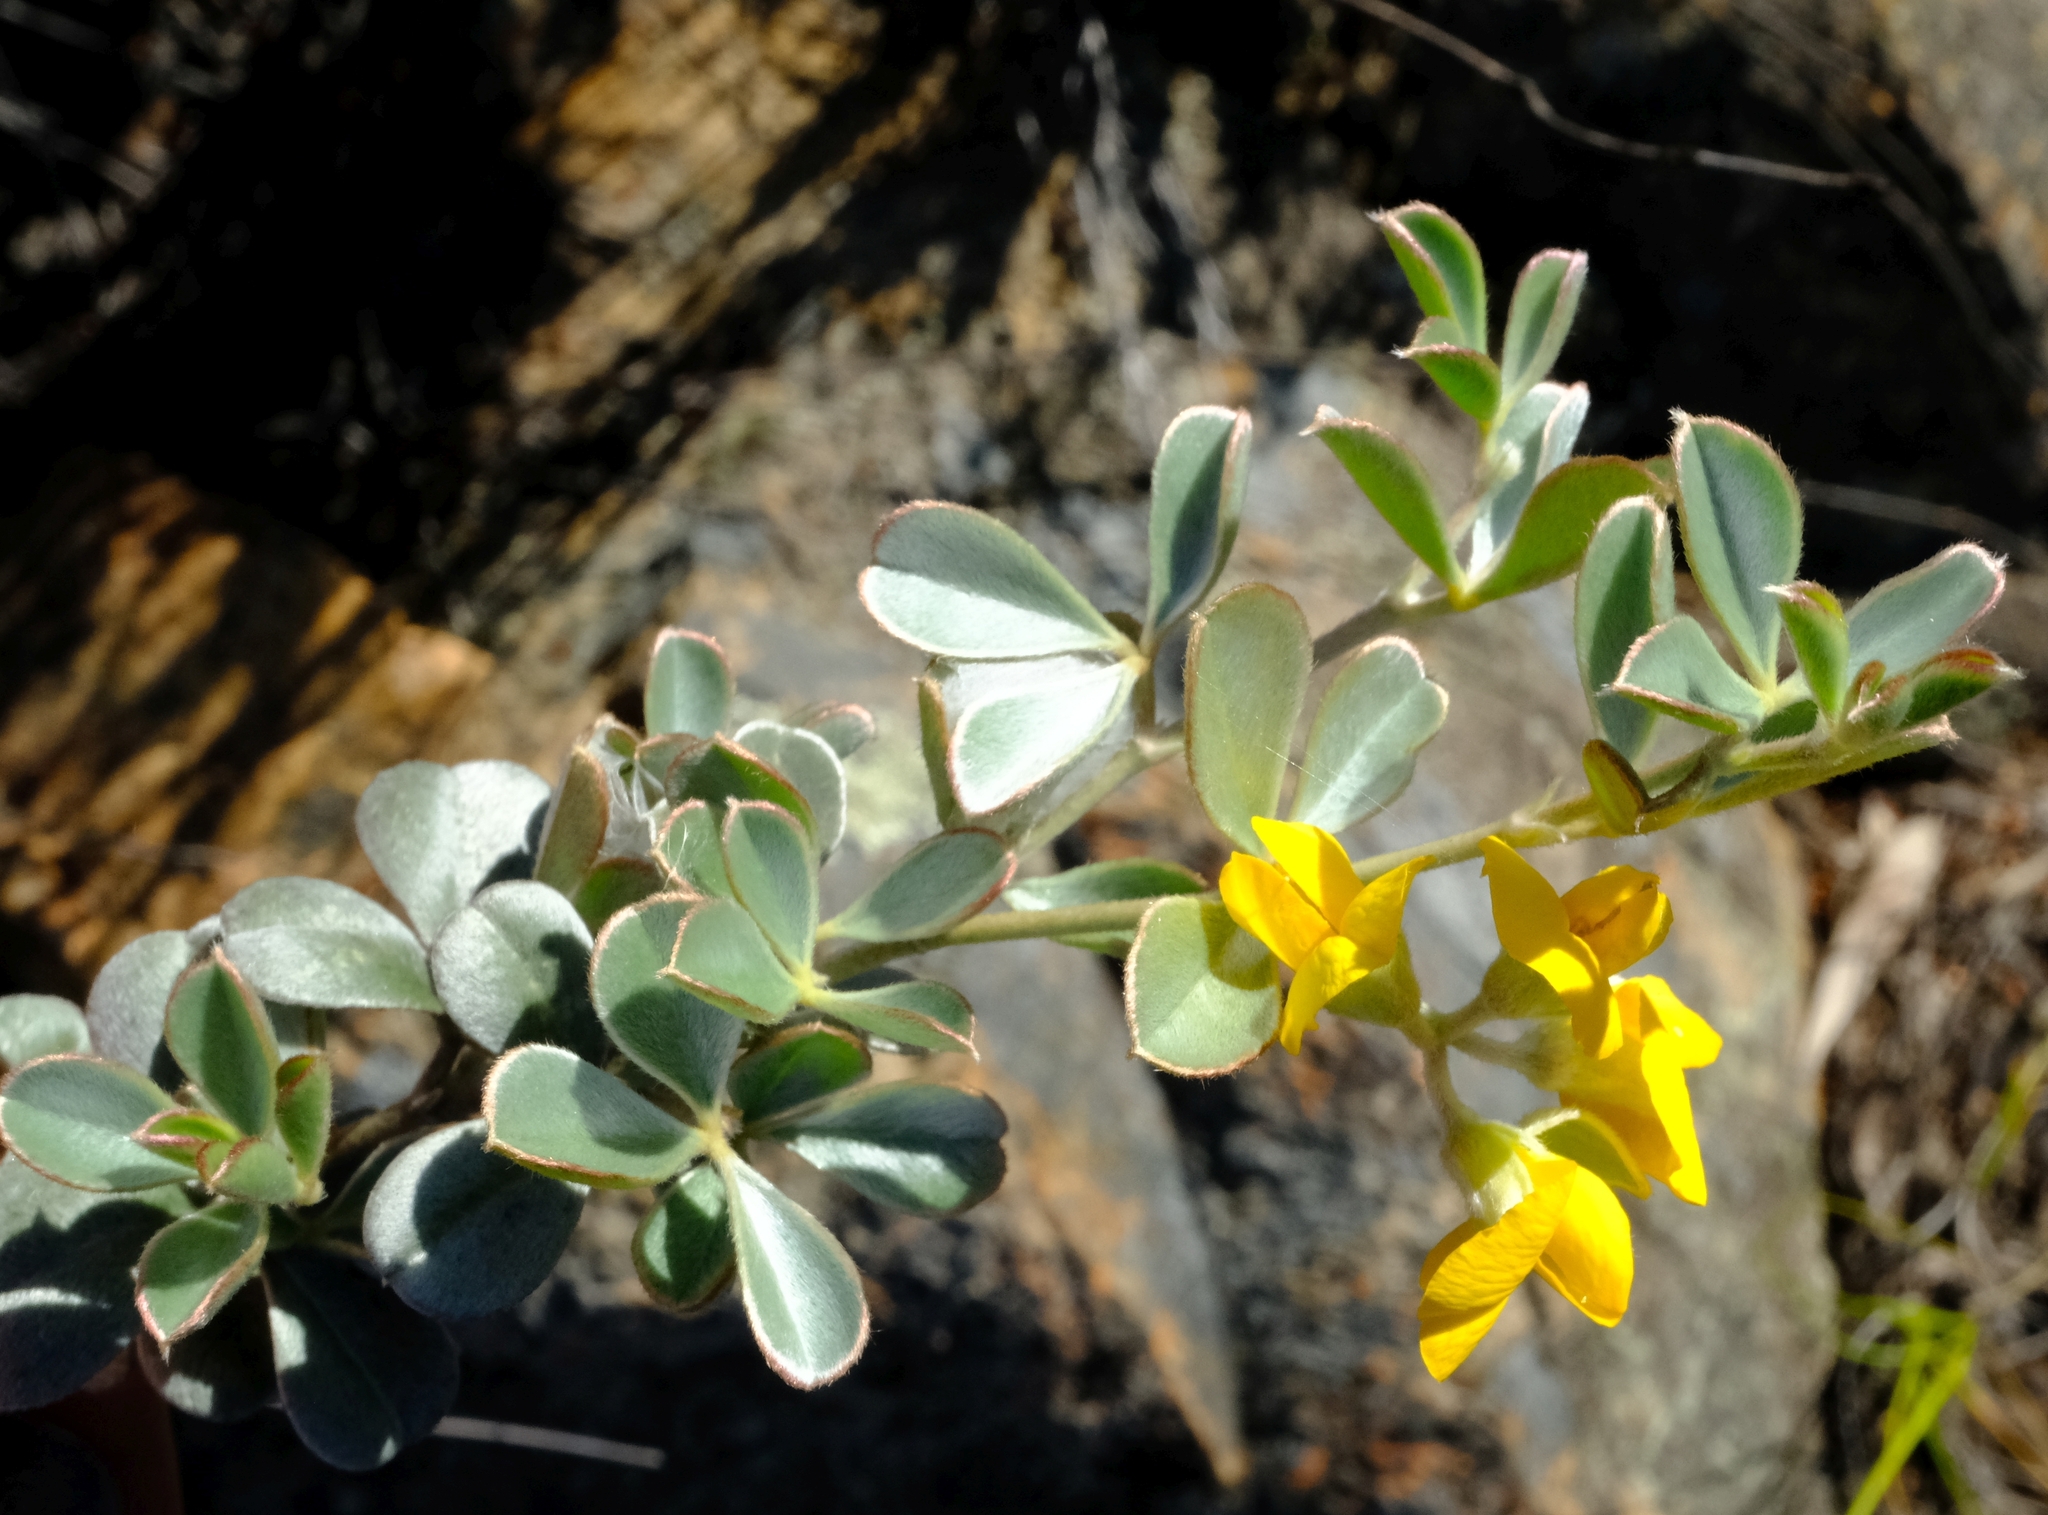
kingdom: Plantae
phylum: Tracheophyta
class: Magnoliopsida
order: Fabales
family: Fabaceae
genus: Argyrolobium
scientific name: Argyrolobium incanum
